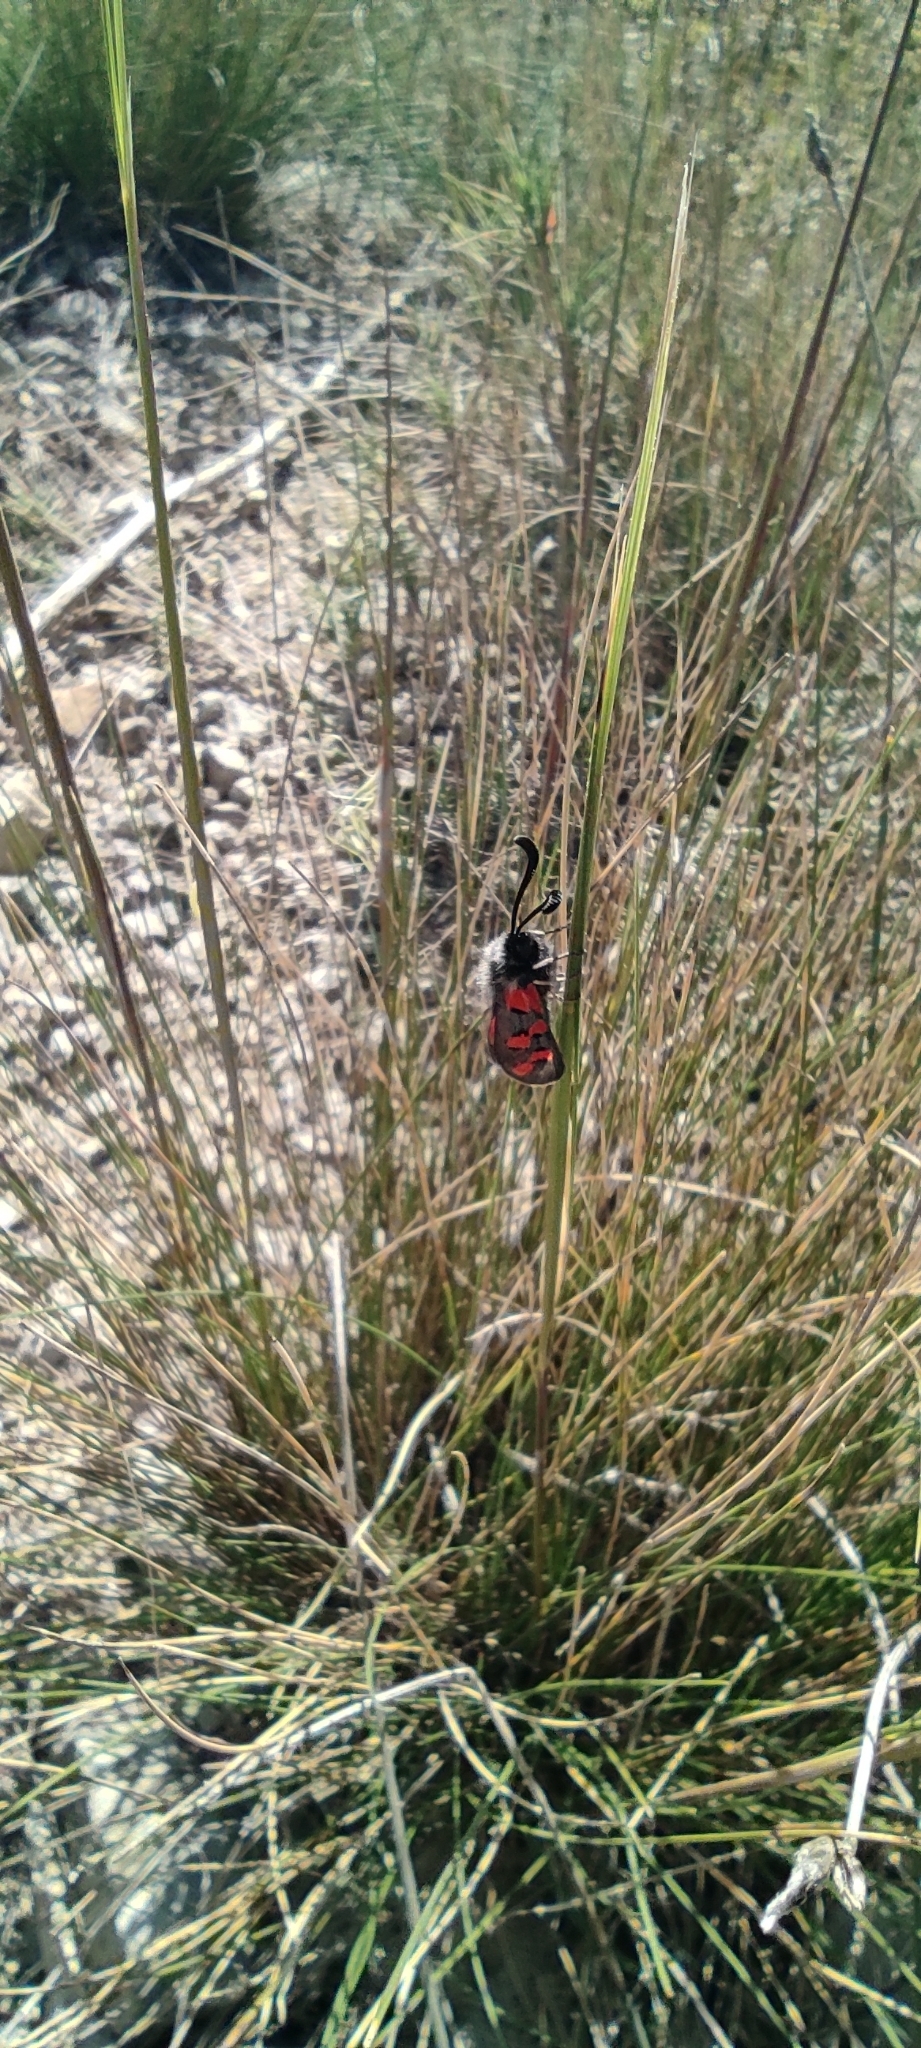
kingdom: Animalia
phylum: Arthropoda
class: Insecta
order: Lepidoptera
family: Zygaenidae
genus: Zygaena
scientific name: Zygaena rhadamanthus
